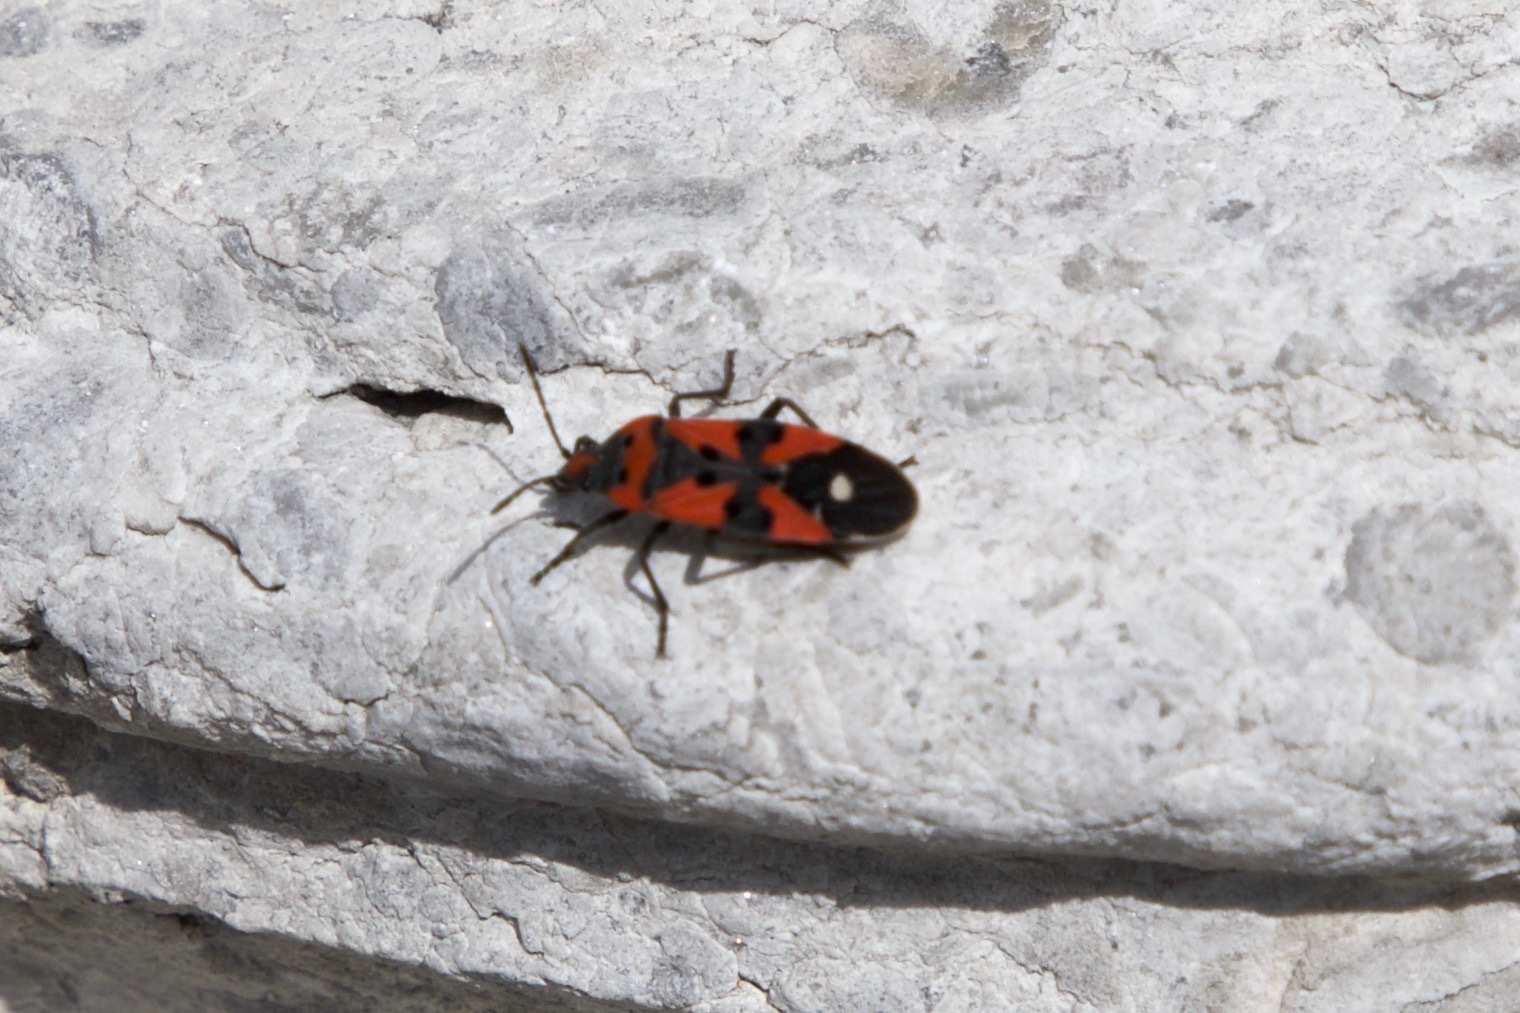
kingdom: Animalia
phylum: Arthropoda
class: Insecta
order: Hemiptera
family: Lygaeidae
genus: Lygaeus
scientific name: Lygaeus equestris
